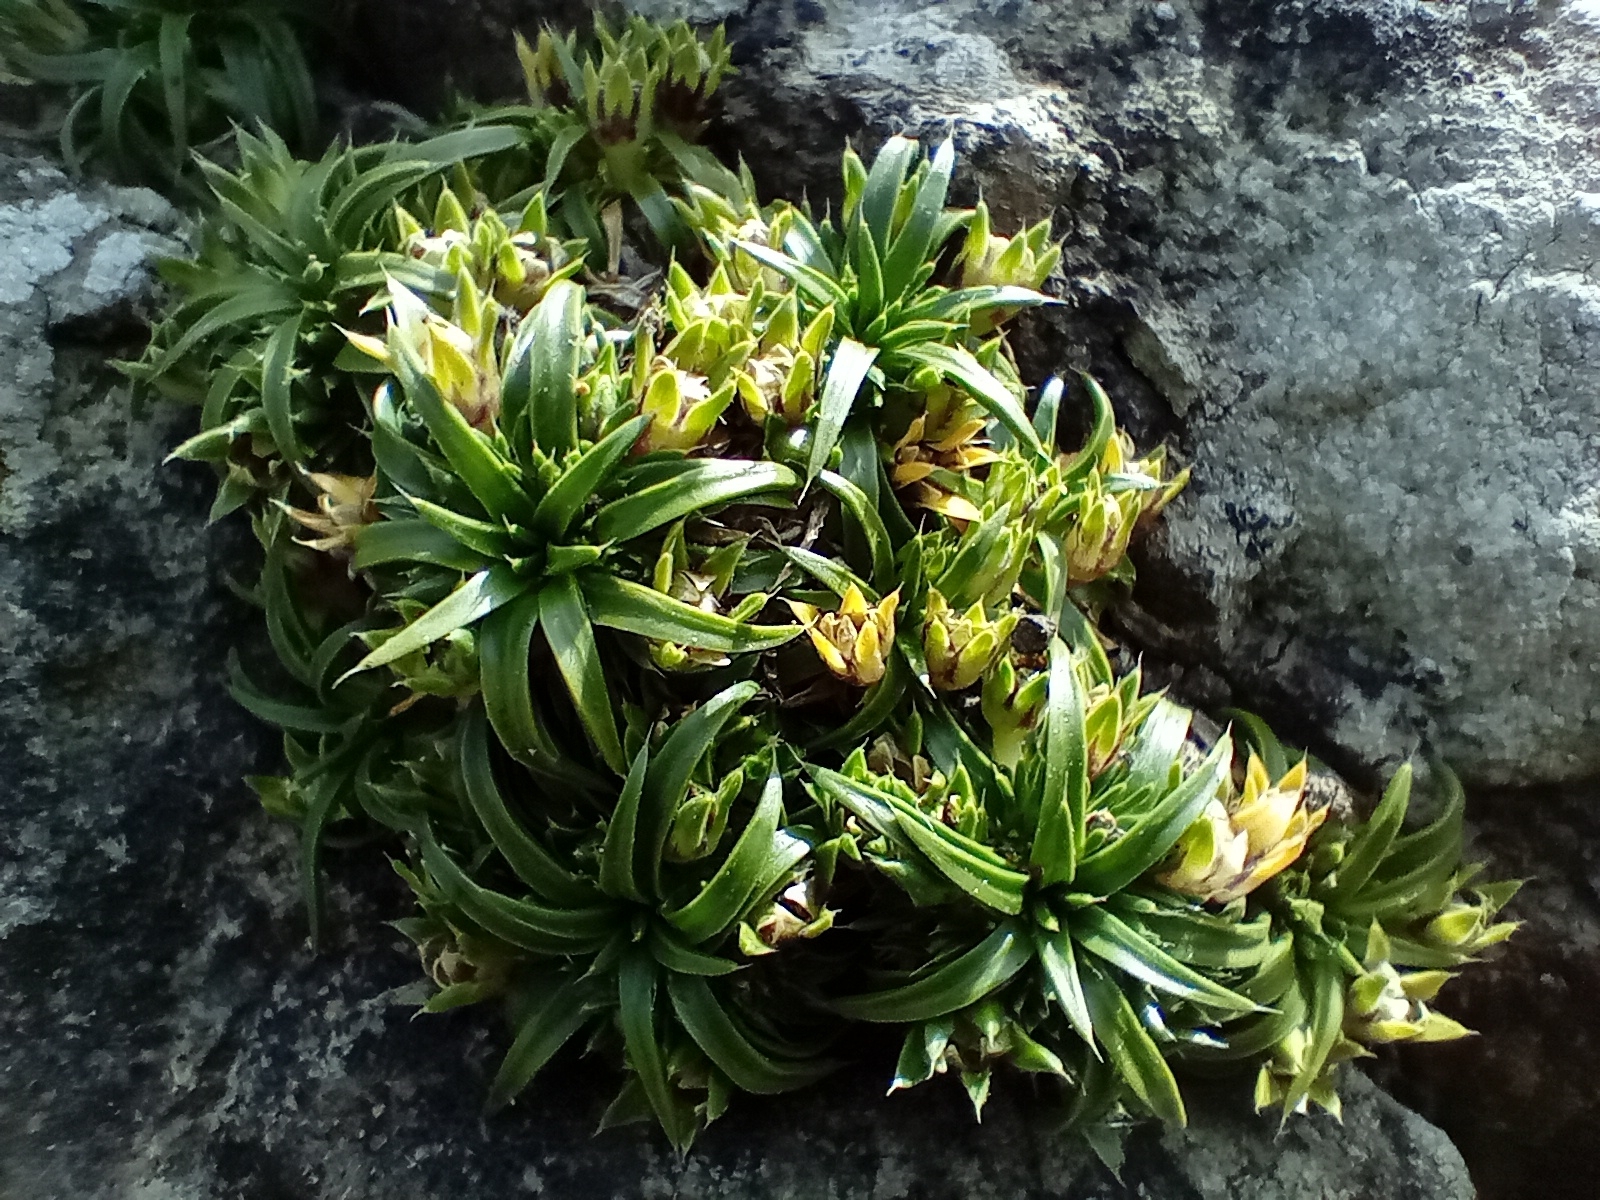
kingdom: Plantae
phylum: Tracheophyta
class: Magnoliopsida
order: Caryophyllales
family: Caryophyllaceae
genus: Colobanthus
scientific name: Colobanthus muelleri
